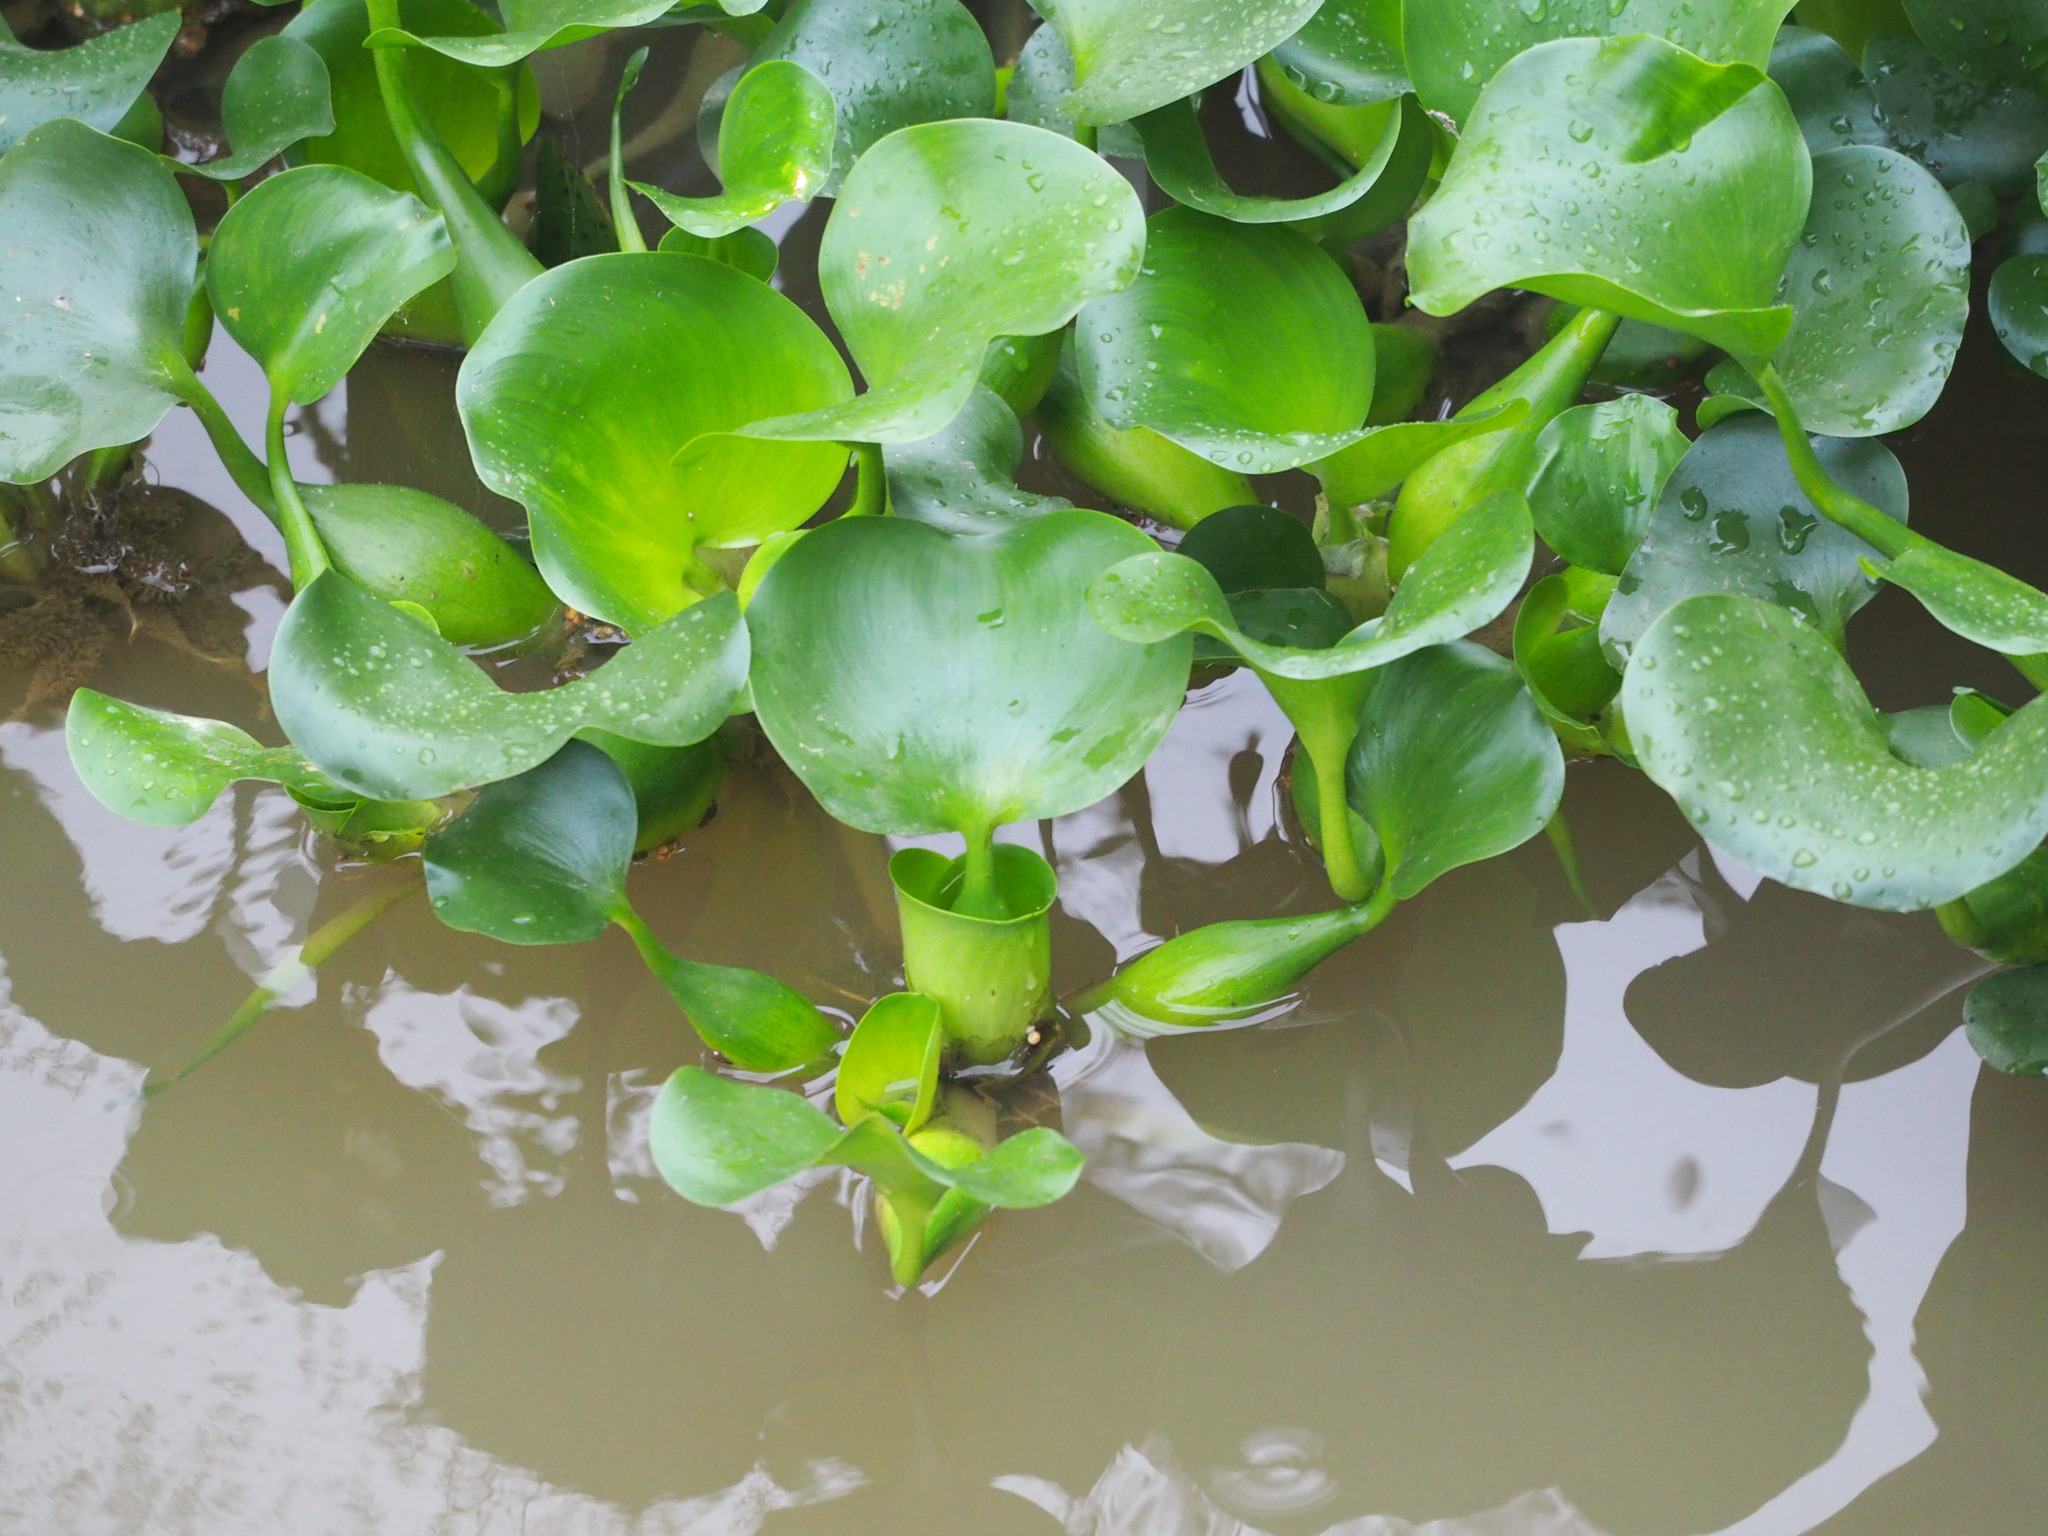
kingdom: Plantae
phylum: Tracheophyta
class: Liliopsida
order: Commelinales
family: Pontederiaceae
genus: Pontederia
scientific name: Pontederia crassipes
